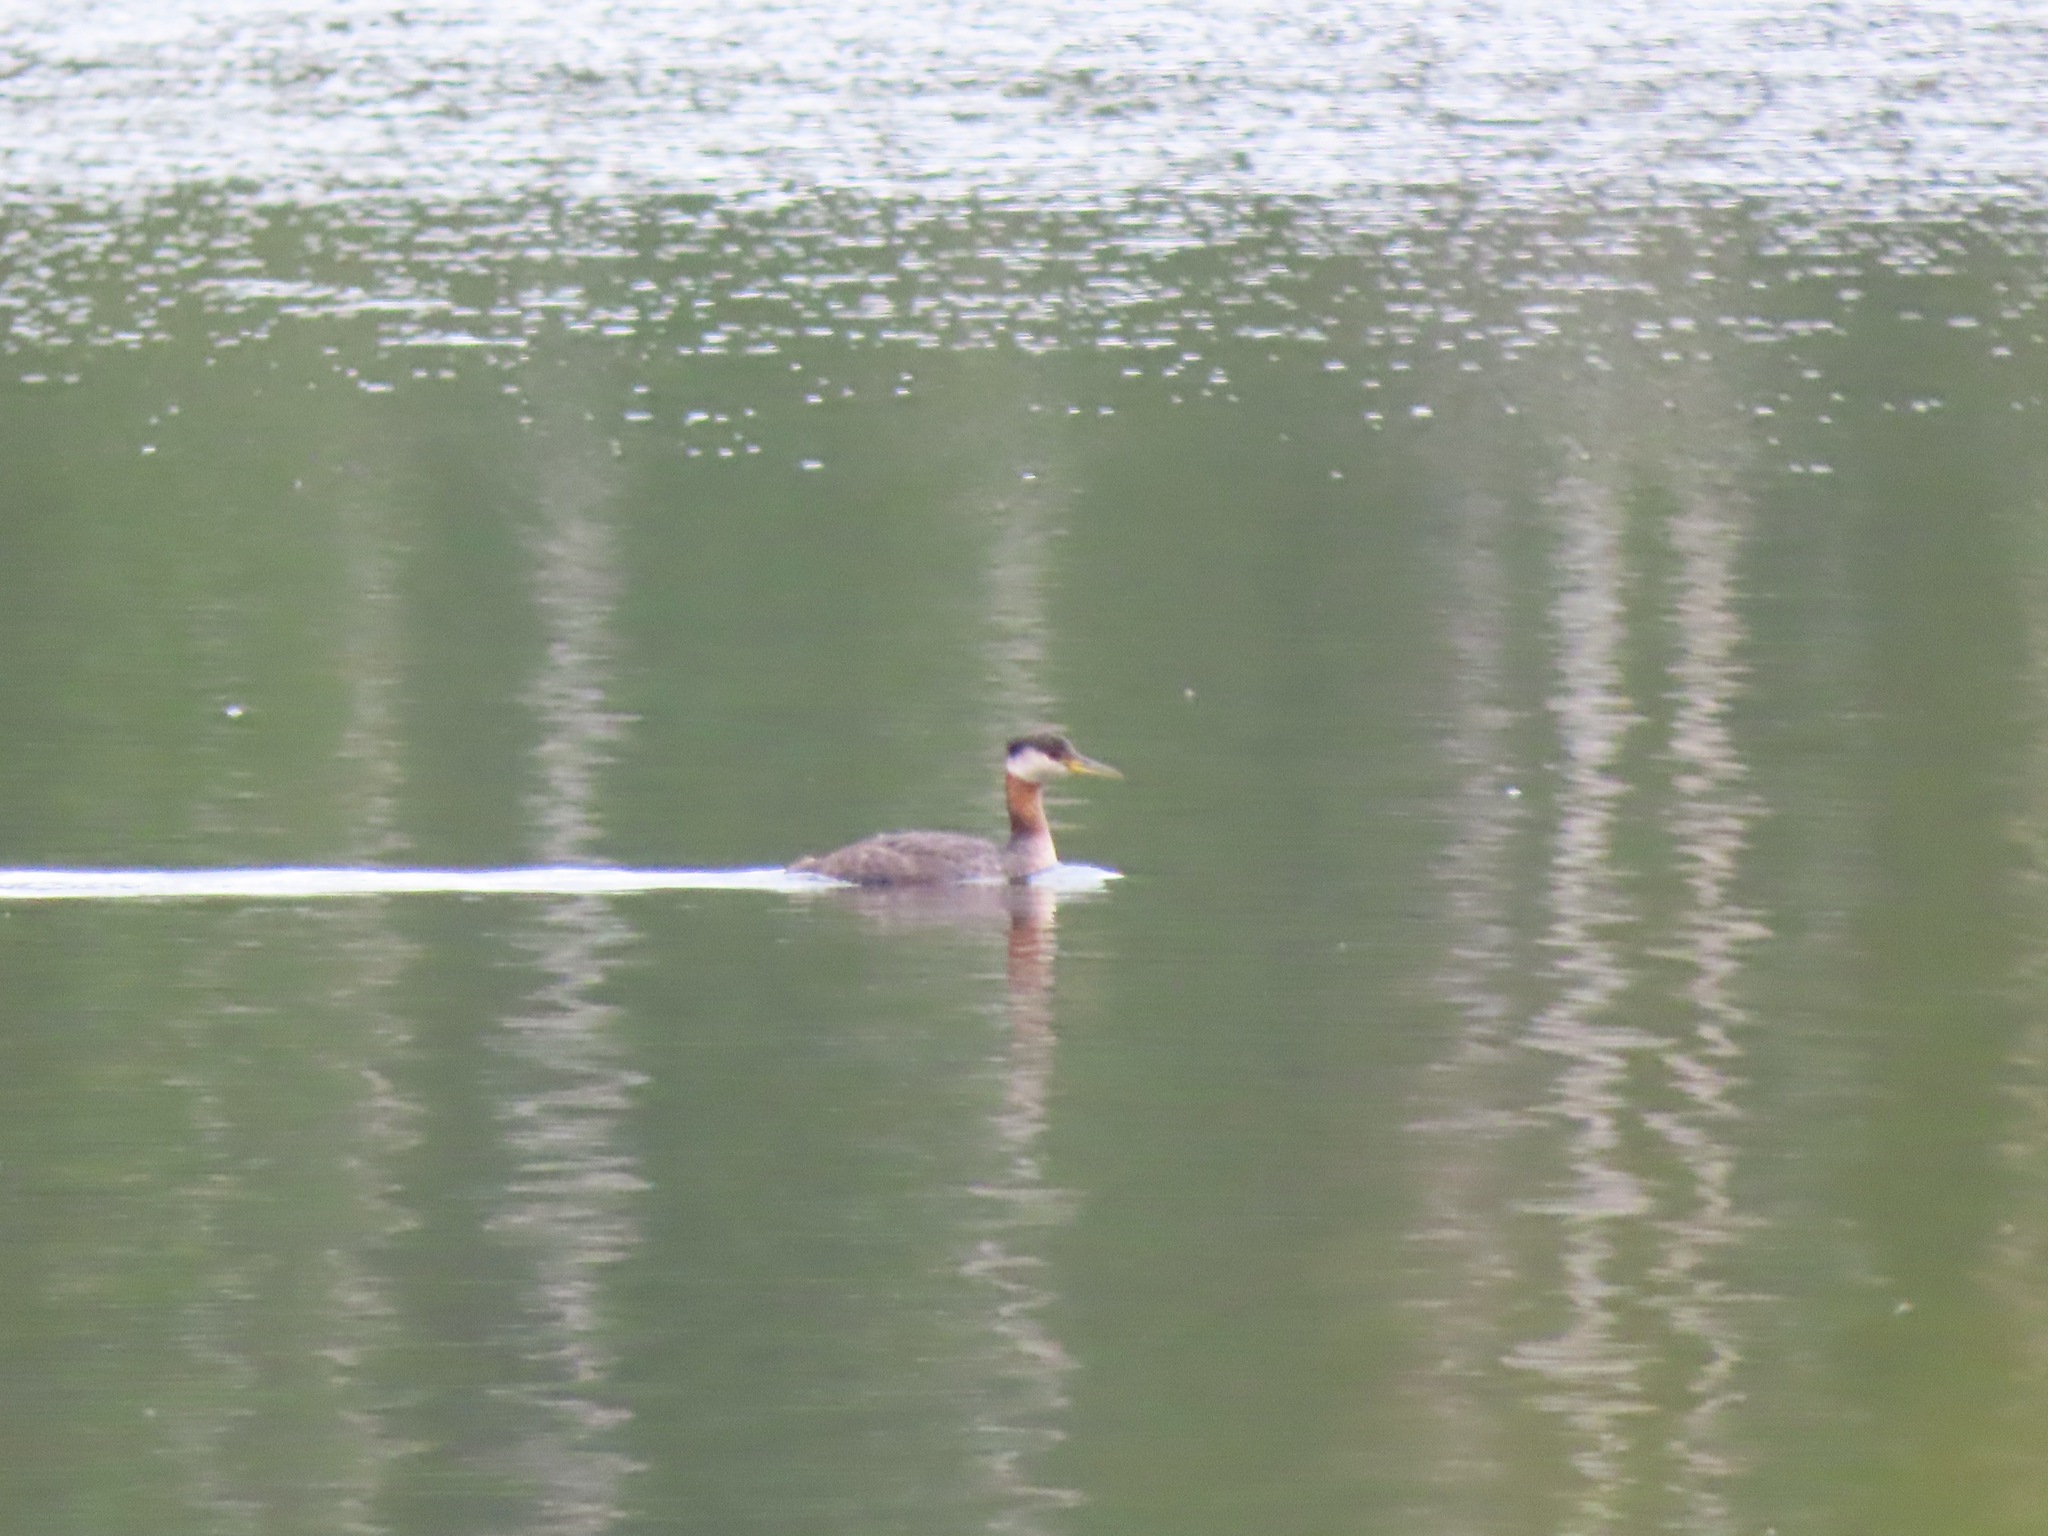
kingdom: Animalia
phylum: Chordata
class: Aves
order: Podicipediformes
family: Podicipedidae
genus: Podiceps
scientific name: Podiceps grisegena
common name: Red-necked grebe
